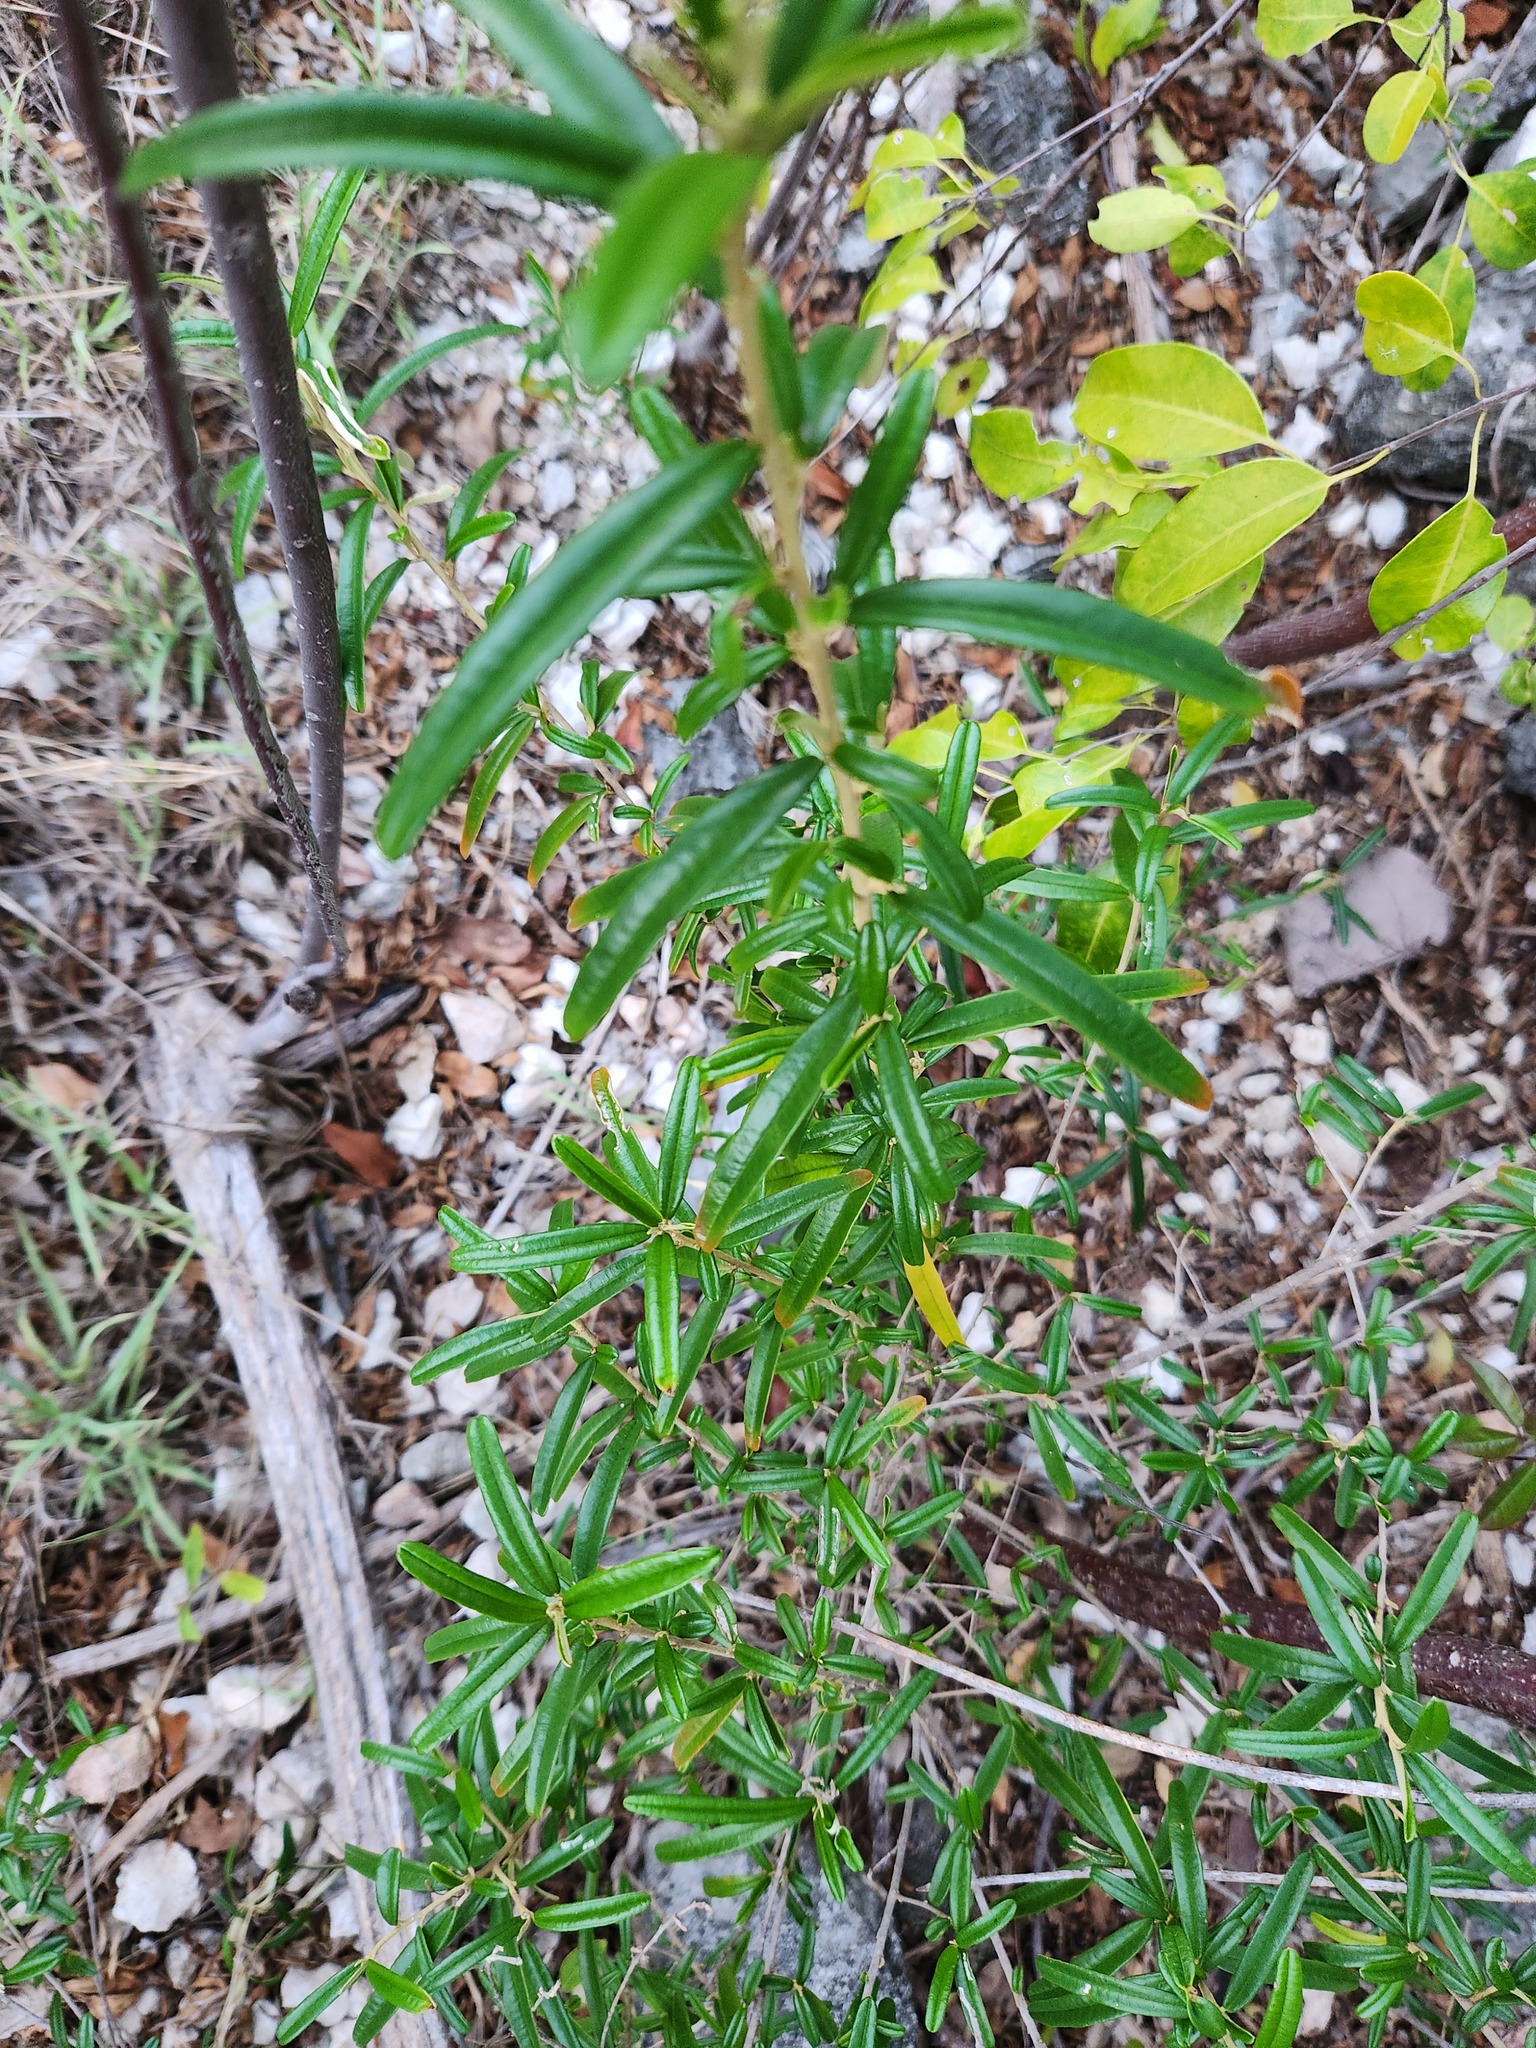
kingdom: Plantae
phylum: Tracheophyta
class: Magnoliopsida
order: Malpighiales
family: Euphorbiaceae
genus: Croton
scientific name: Croton linearis
